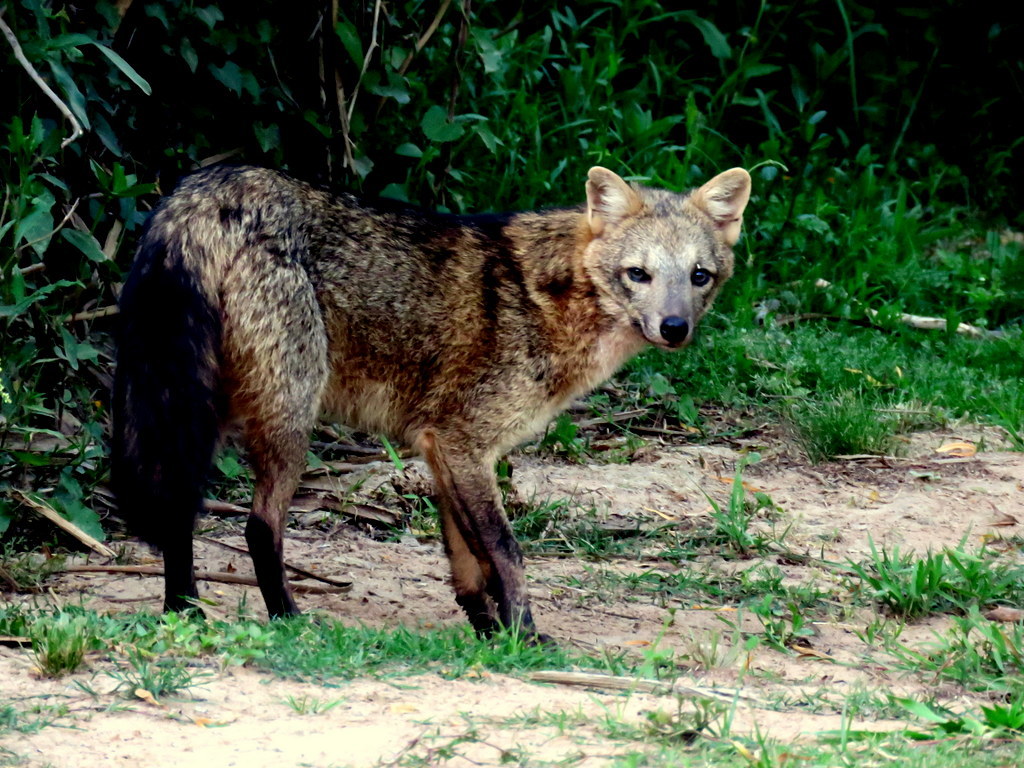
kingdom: Animalia
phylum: Chordata
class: Mammalia
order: Carnivora
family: Canidae
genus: Cerdocyon
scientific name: Cerdocyon thous
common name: Crab-eating fox
